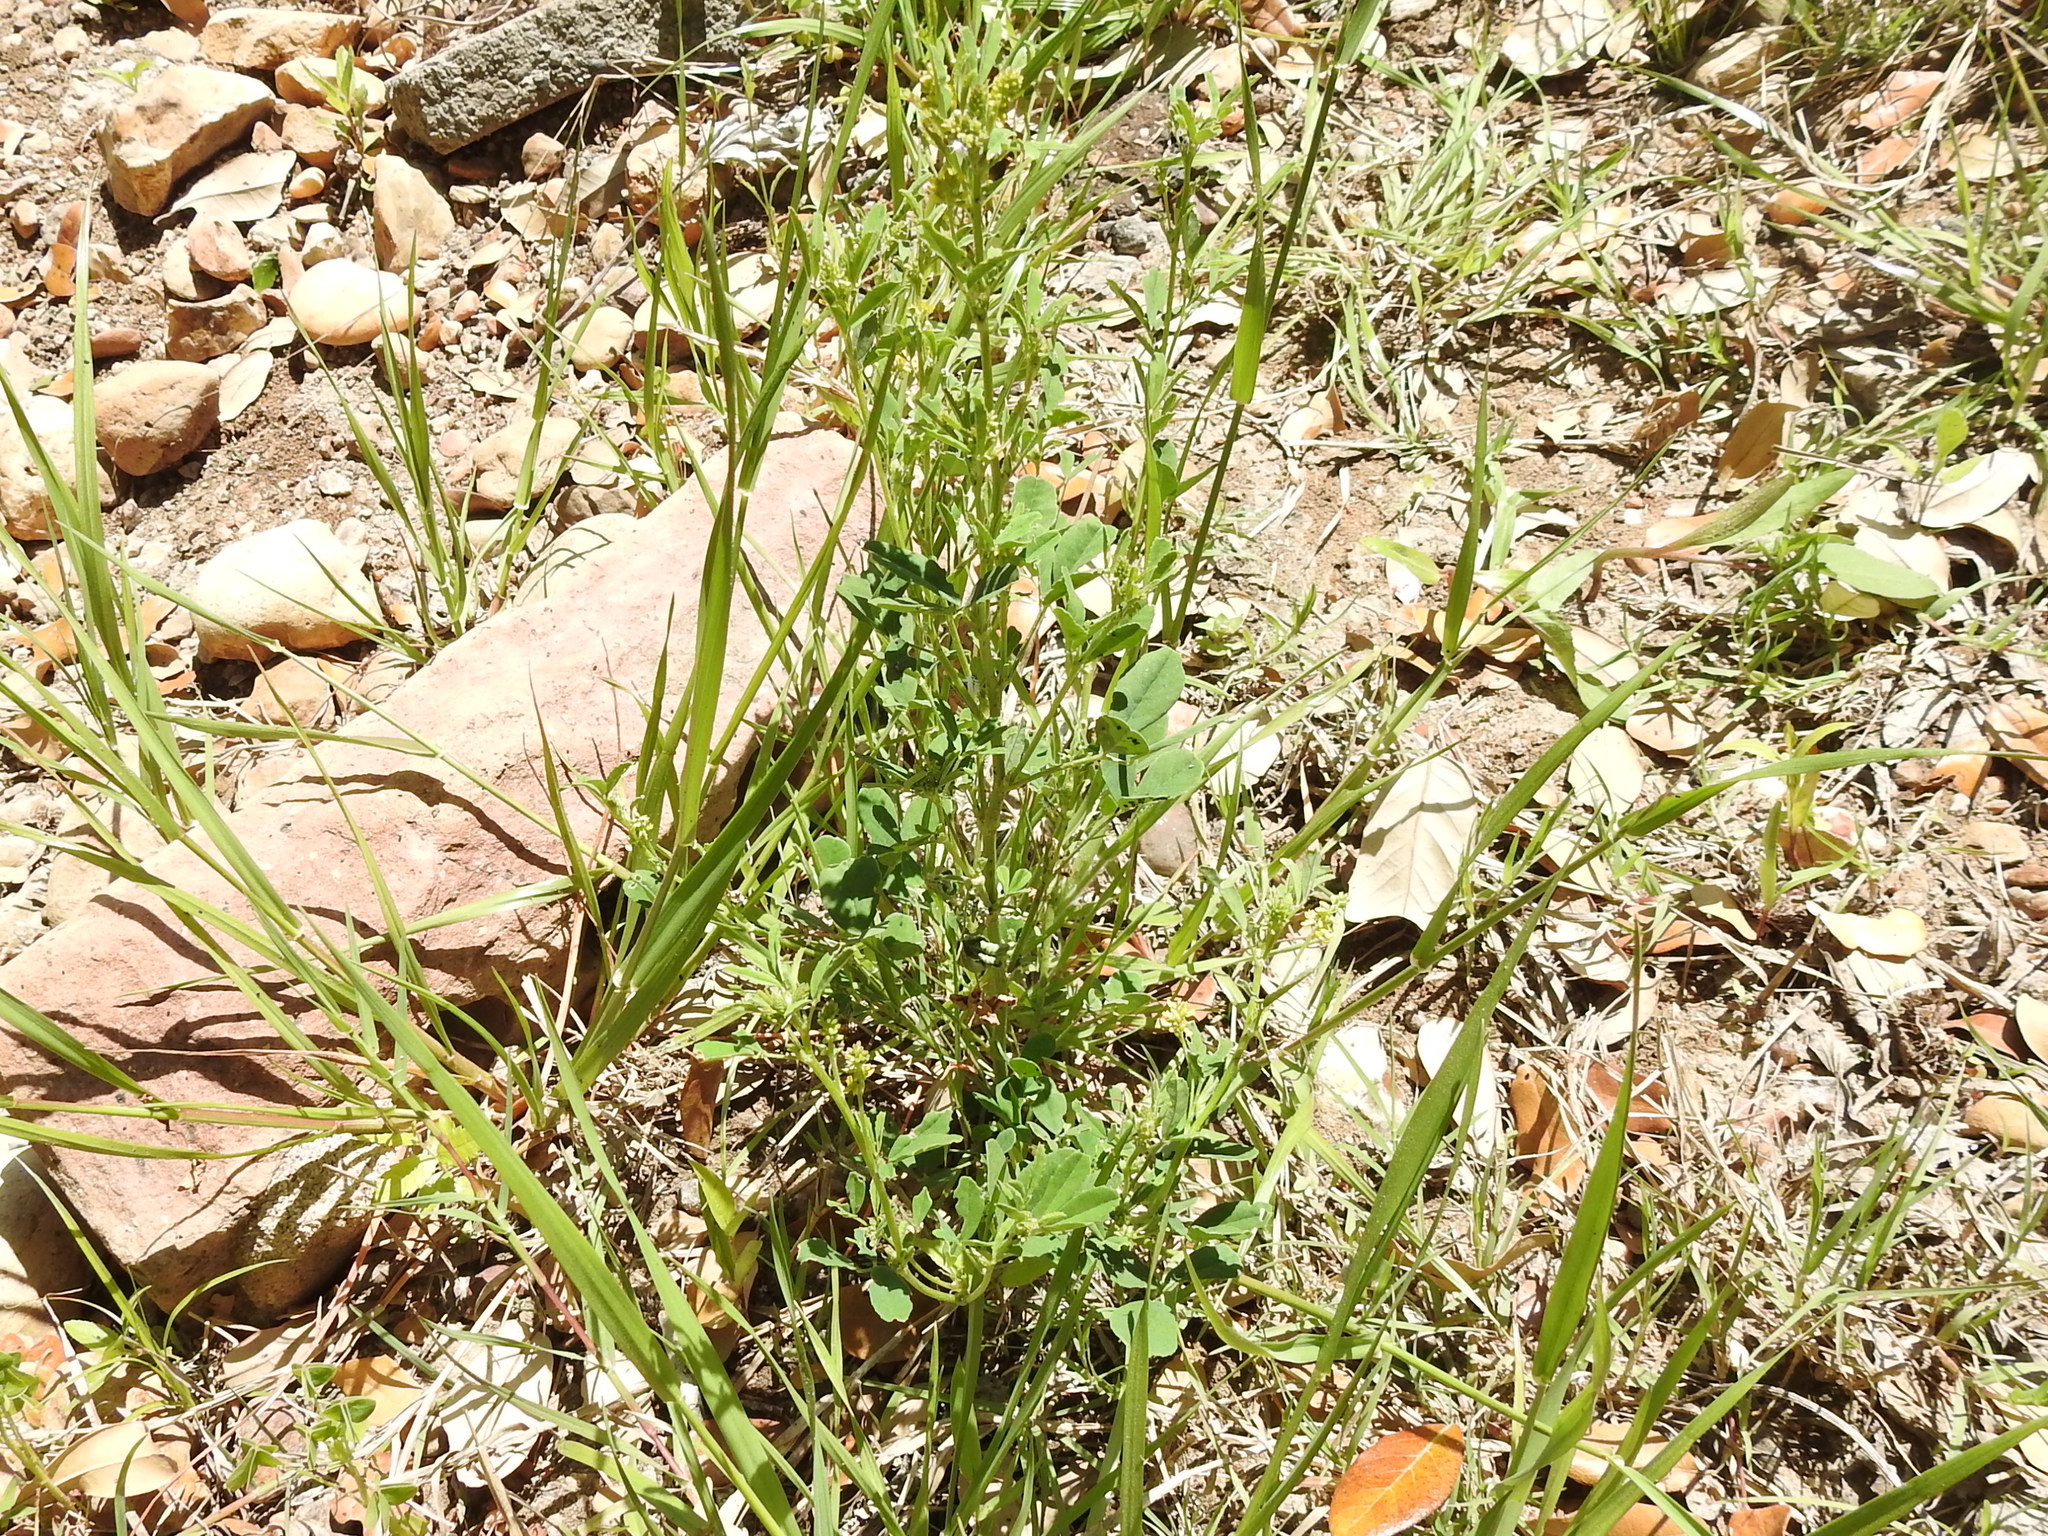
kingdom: Plantae
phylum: Tracheophyta
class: Magnoliopsida
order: Fabales
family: Fabaceae
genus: Melilotus
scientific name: Melilotus indicus
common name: Small melilot
